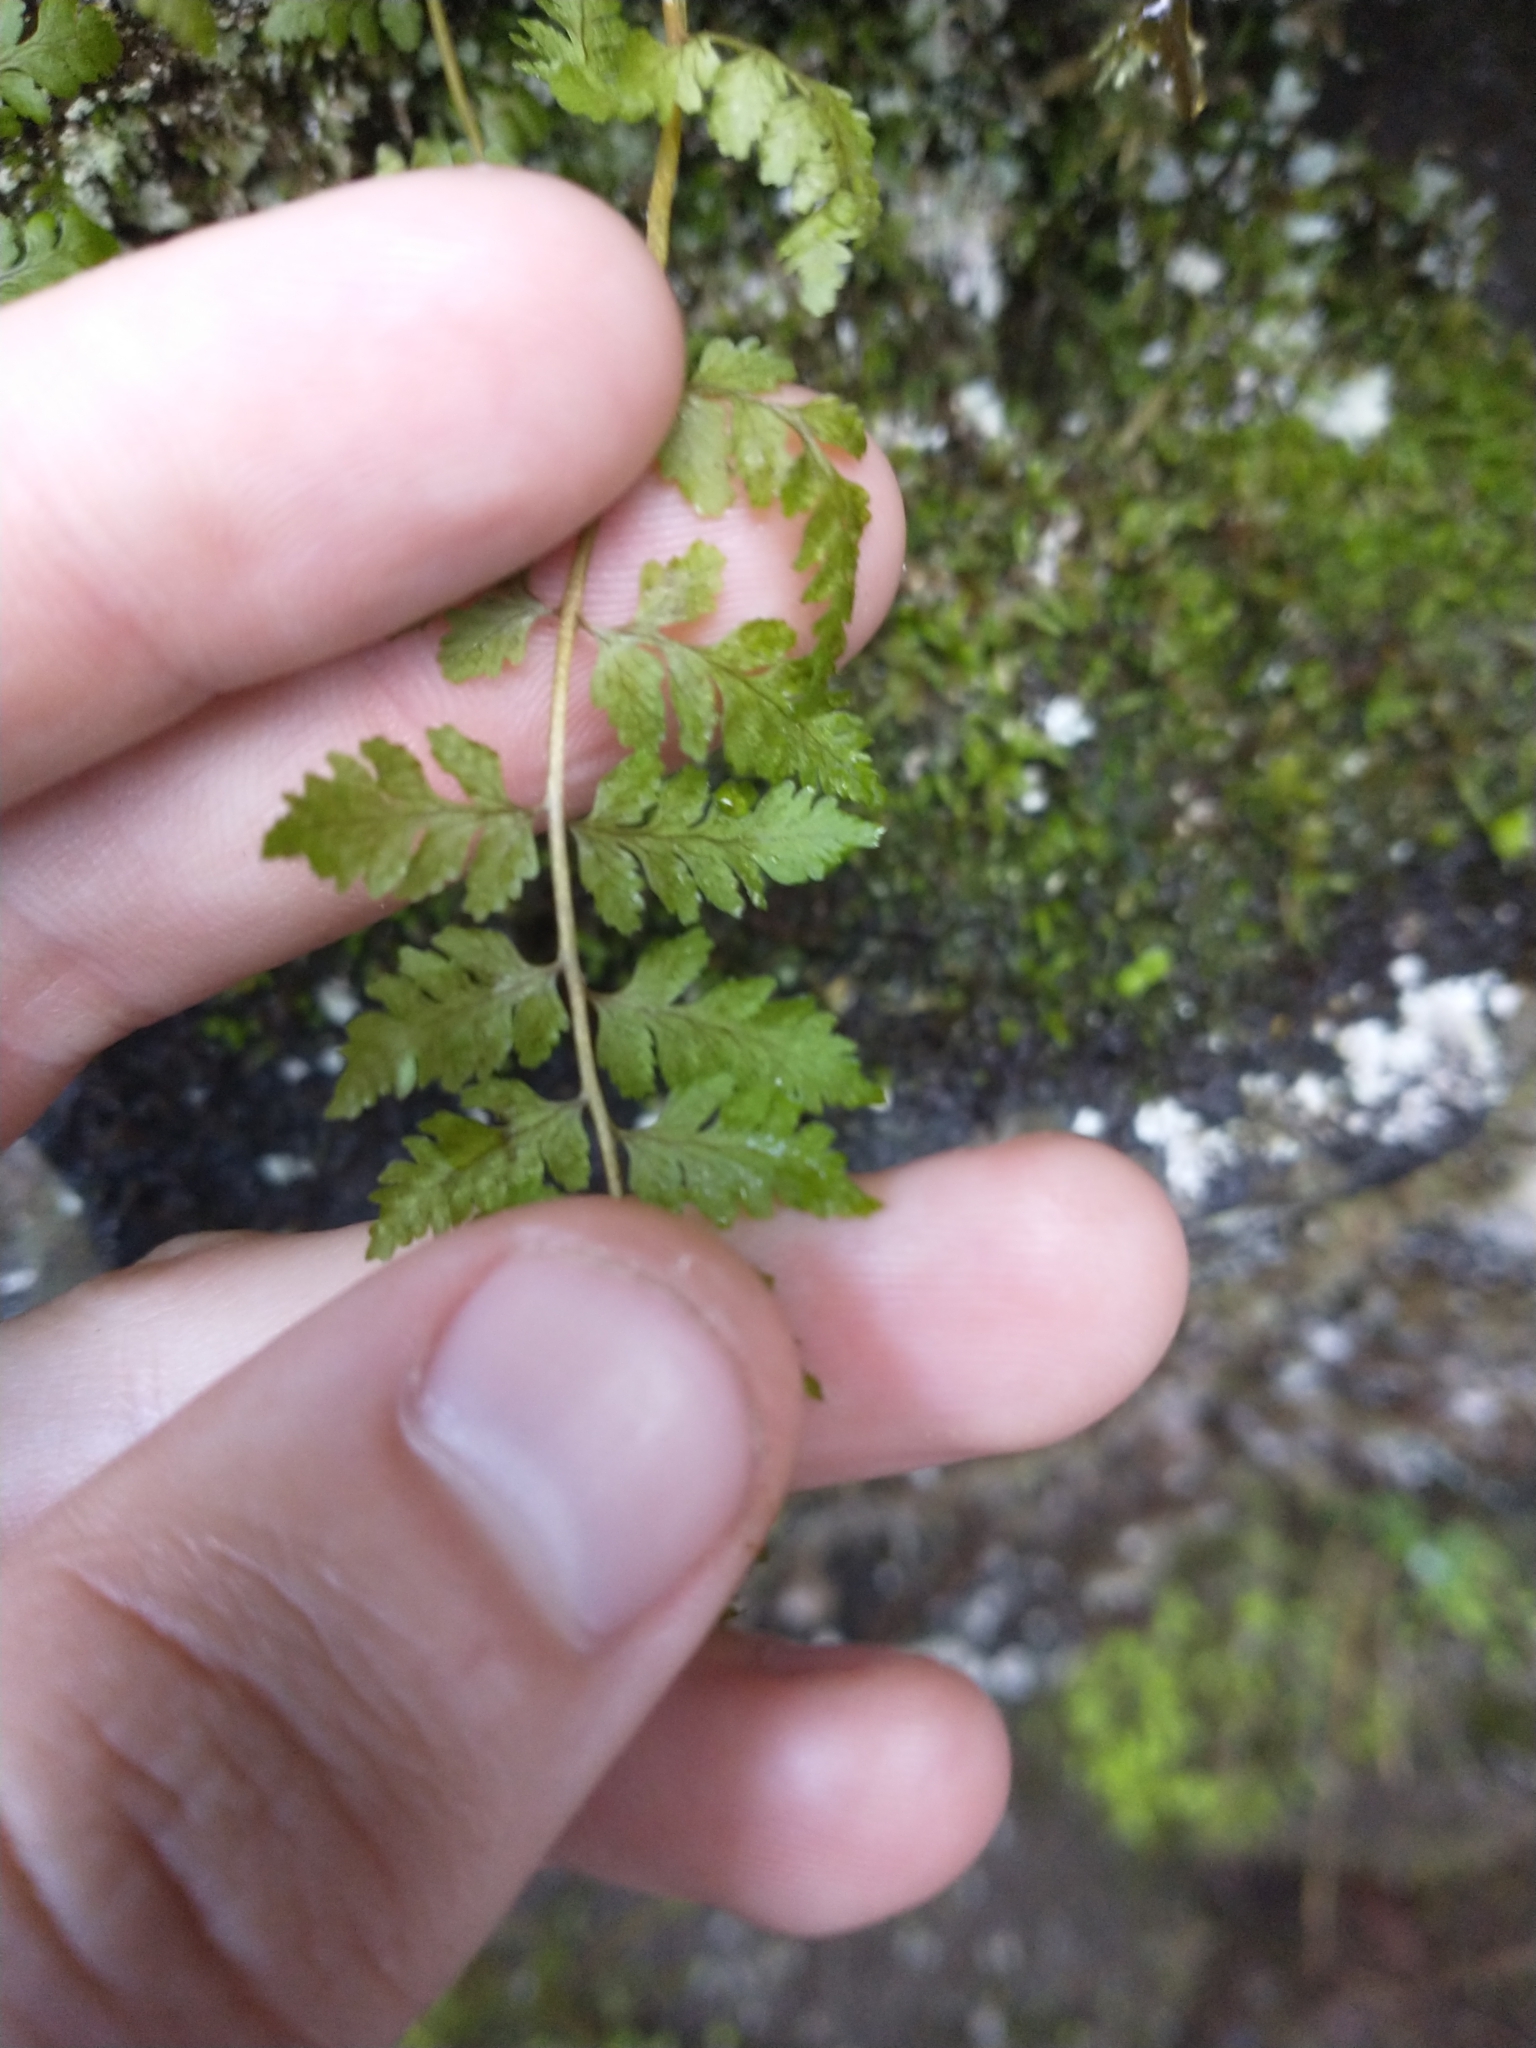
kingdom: Plantae
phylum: Tracheophyta
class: Polypodiopsida
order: Polypodiales
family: Cystopteridaceae
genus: Cystopteris
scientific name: Cystopteris fragilis
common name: Brittle bladder fern
